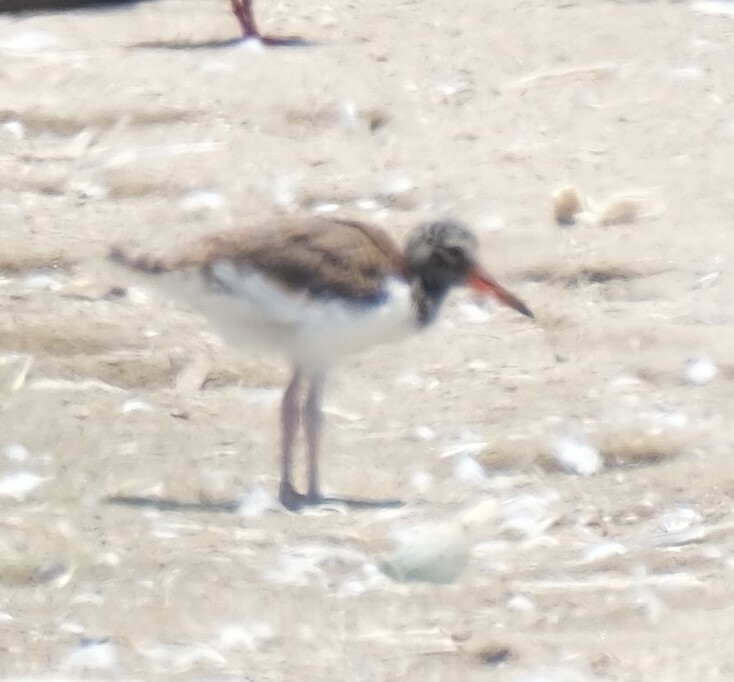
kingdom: Animalia
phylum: Chordata
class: Aves
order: Charadriiformes
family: Haematopodidae
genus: Haematopus
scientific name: Haematopus palliatus
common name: American oystercatcher
